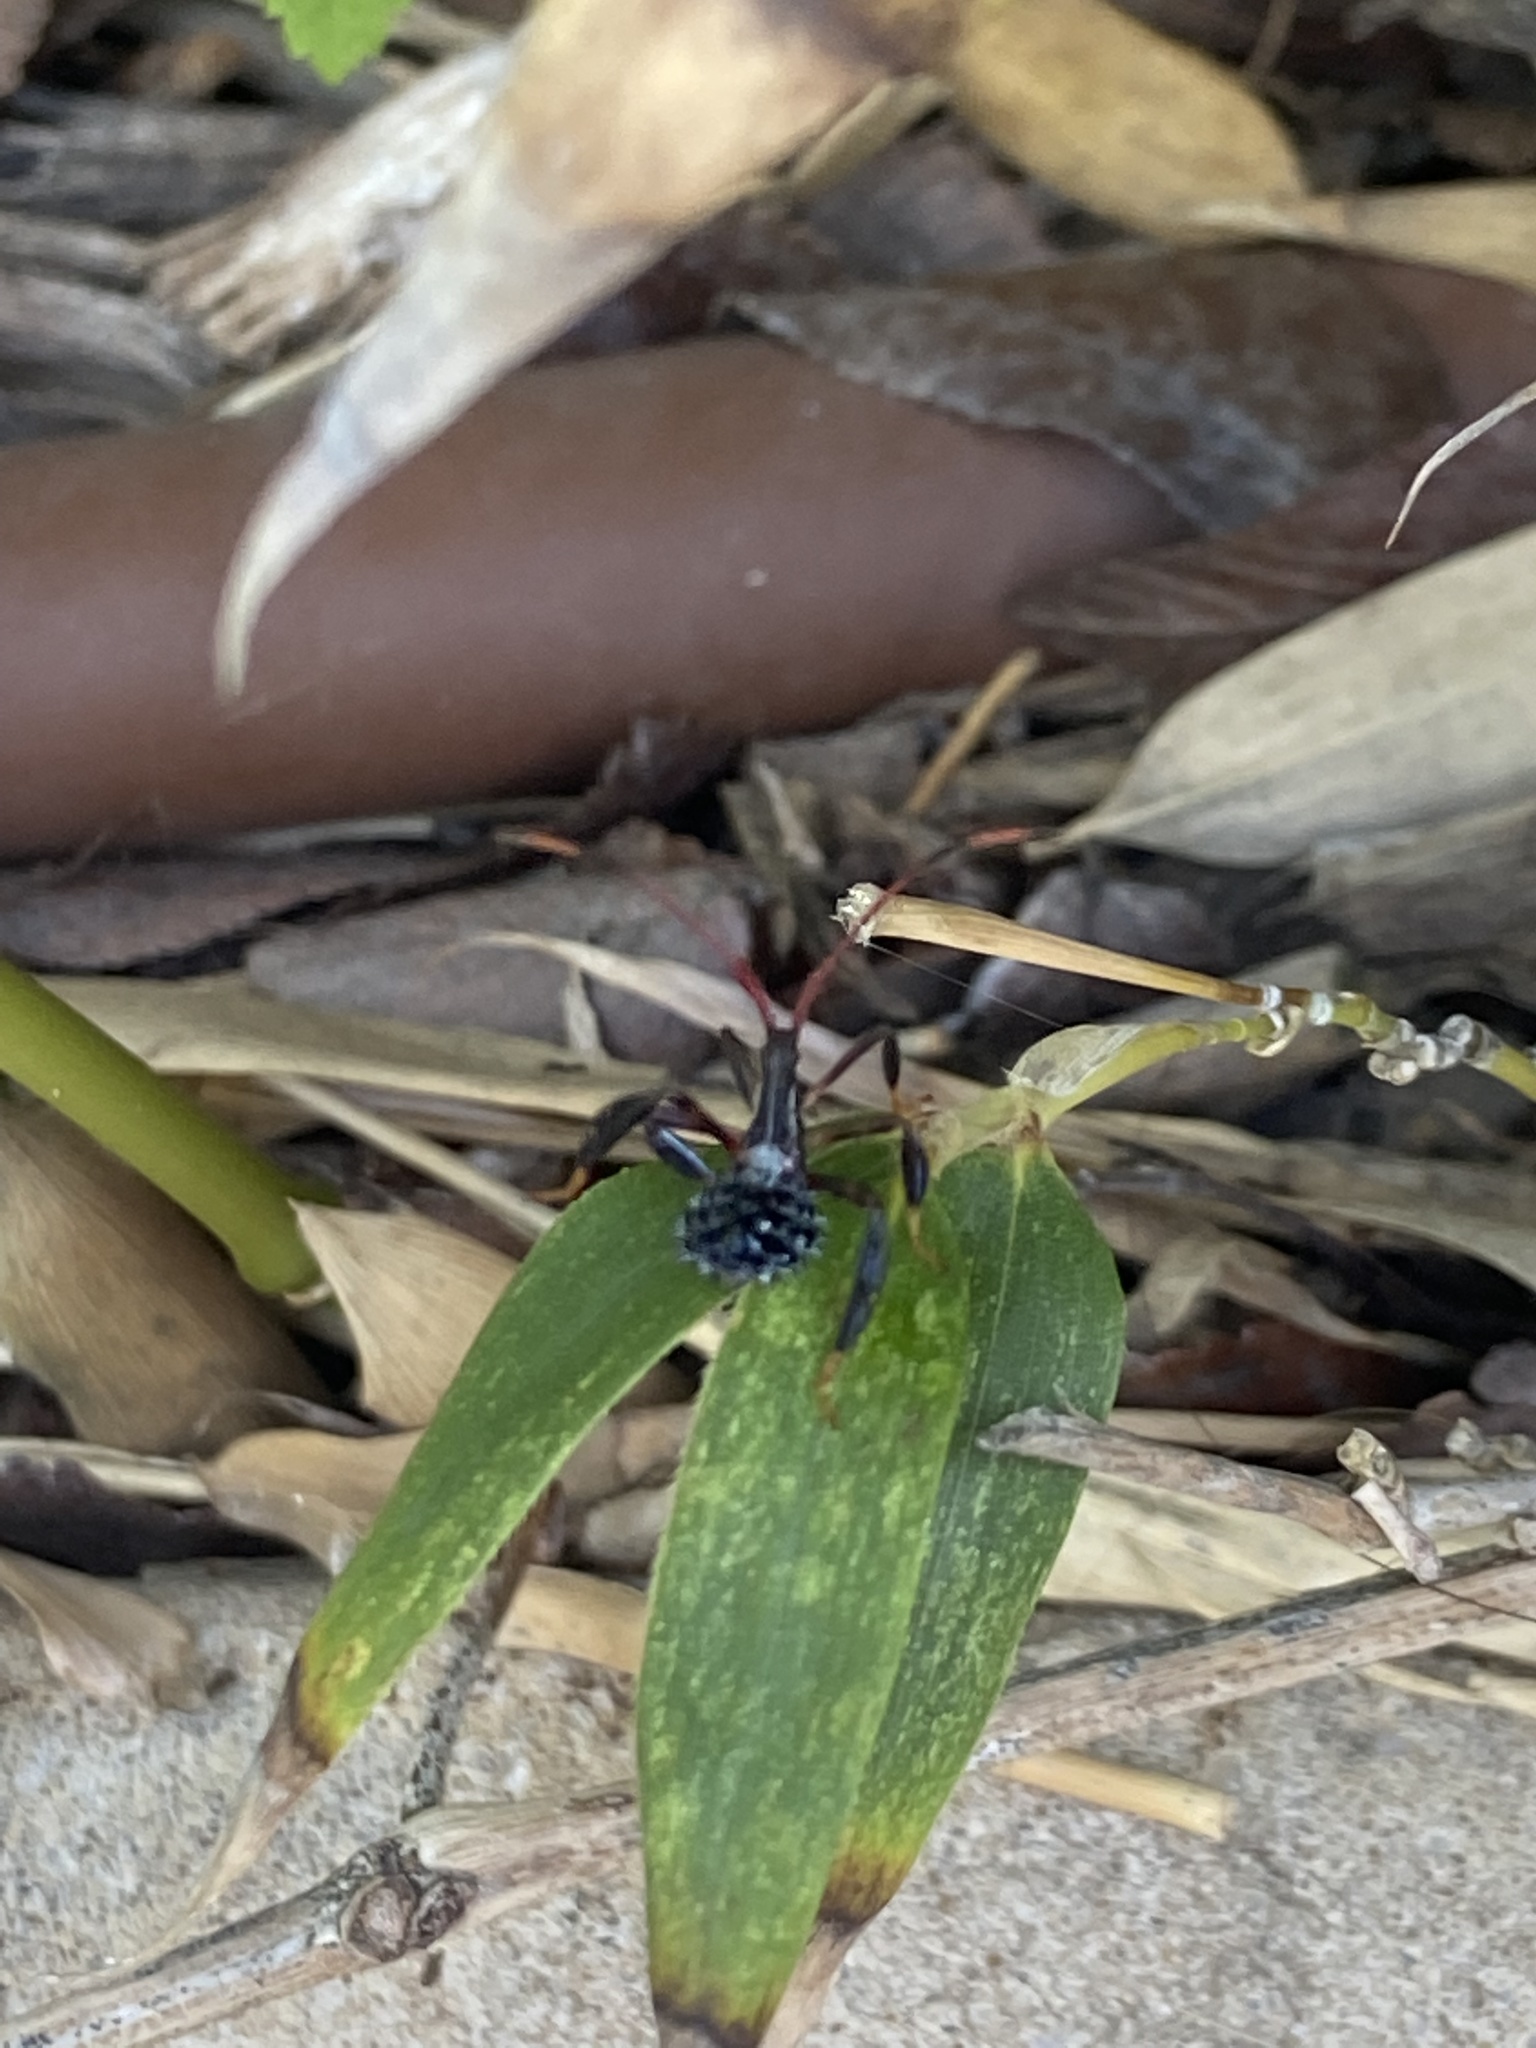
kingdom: Animalia
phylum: Arthropoda
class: Insecta
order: Hemiptera
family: Coreidae
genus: Acanthocephala
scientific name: Acanthocephala terminalis
